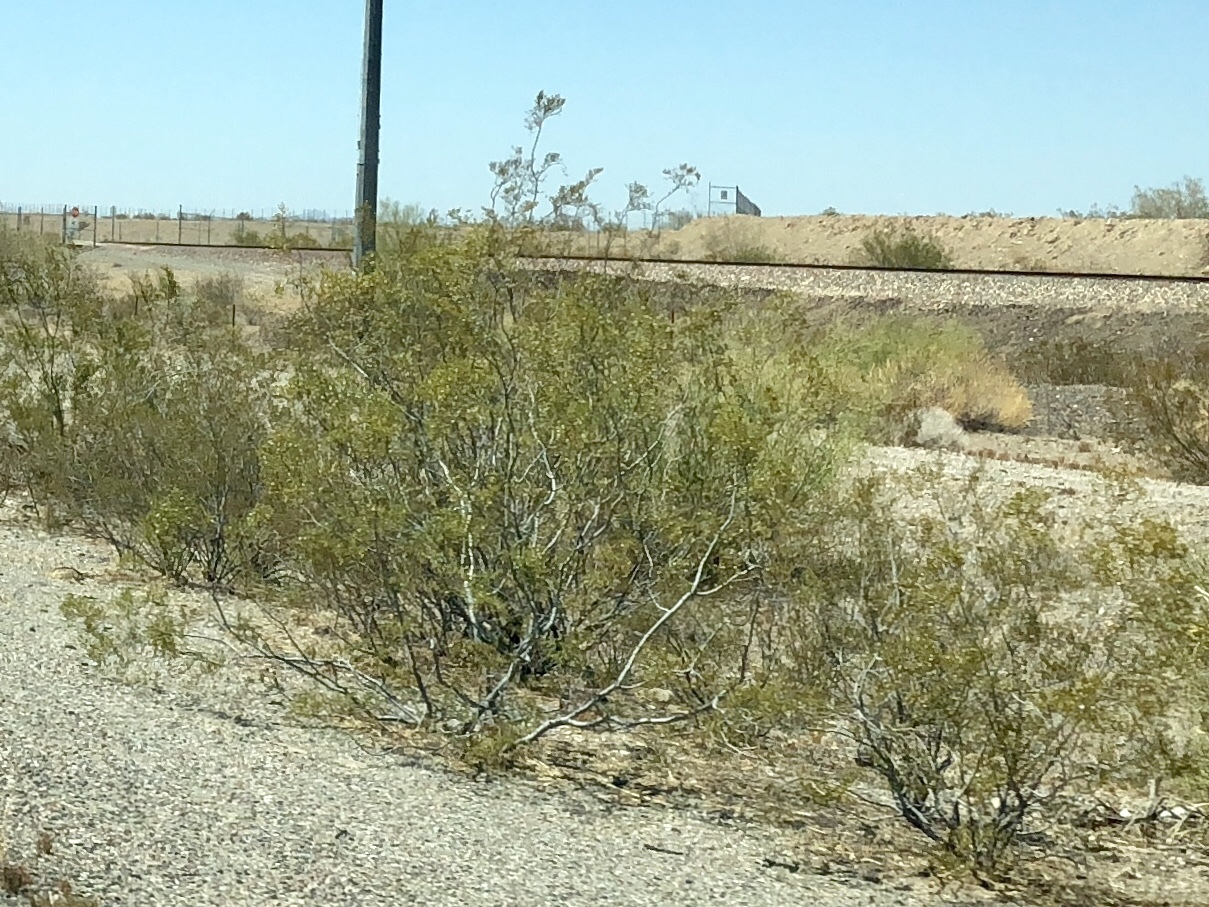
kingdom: Plantae
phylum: Tracheophyta
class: Magnoliopsida
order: Zygophyllales
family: Zygophyllaceae
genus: Larrea
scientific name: Larrea tridentata
